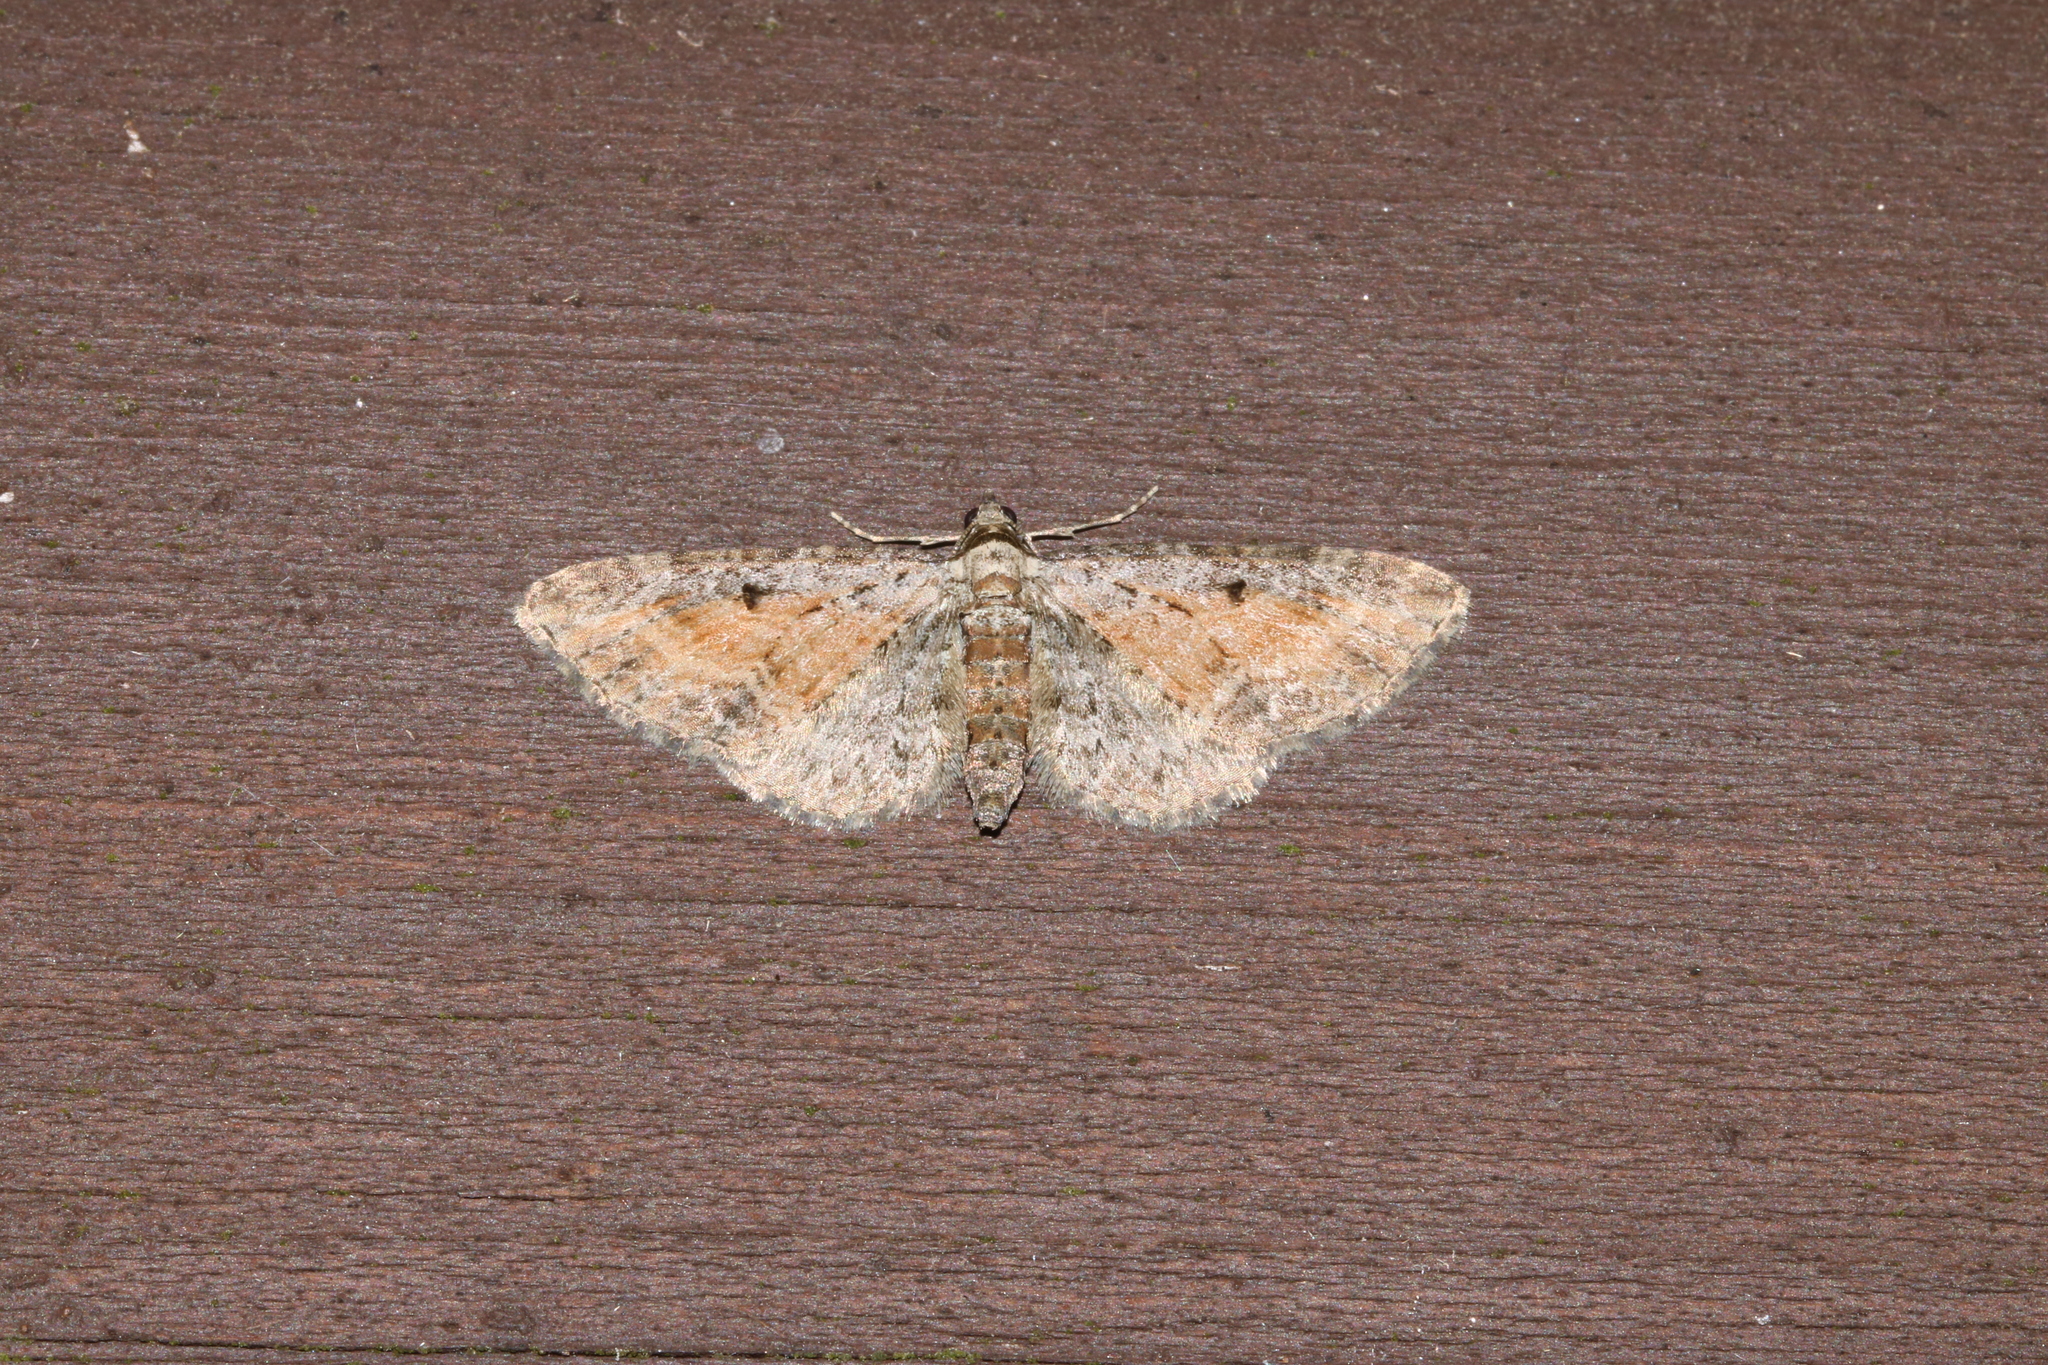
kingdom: Animalia
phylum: Arthropoda
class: Insecta
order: Lepidoptera
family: Geometridae
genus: Eupithecia
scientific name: Eupithecia icterata
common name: Tawny speckled pug
